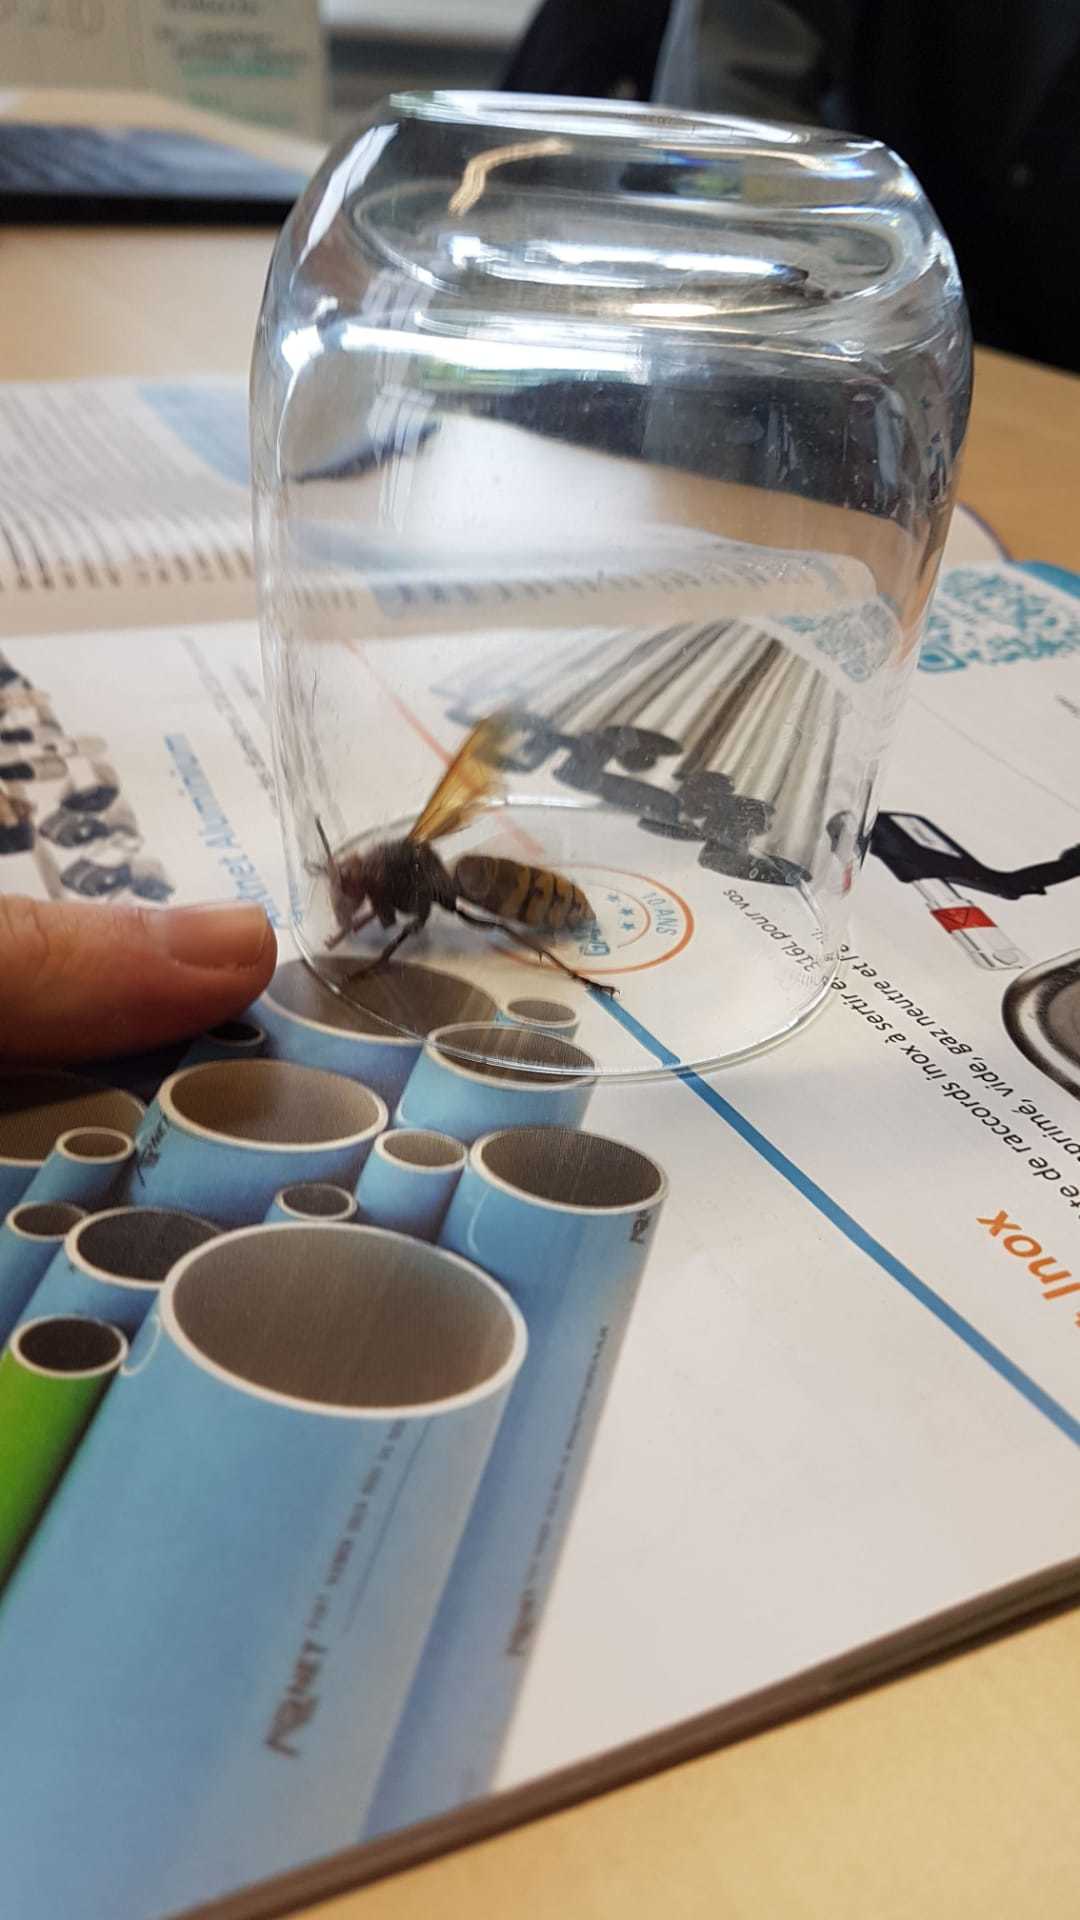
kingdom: Animalia
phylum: Arthropoda
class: Insecta
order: Hymenoptera
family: Vespidae
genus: Vespa
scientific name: Vespa crabro
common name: Hornet
